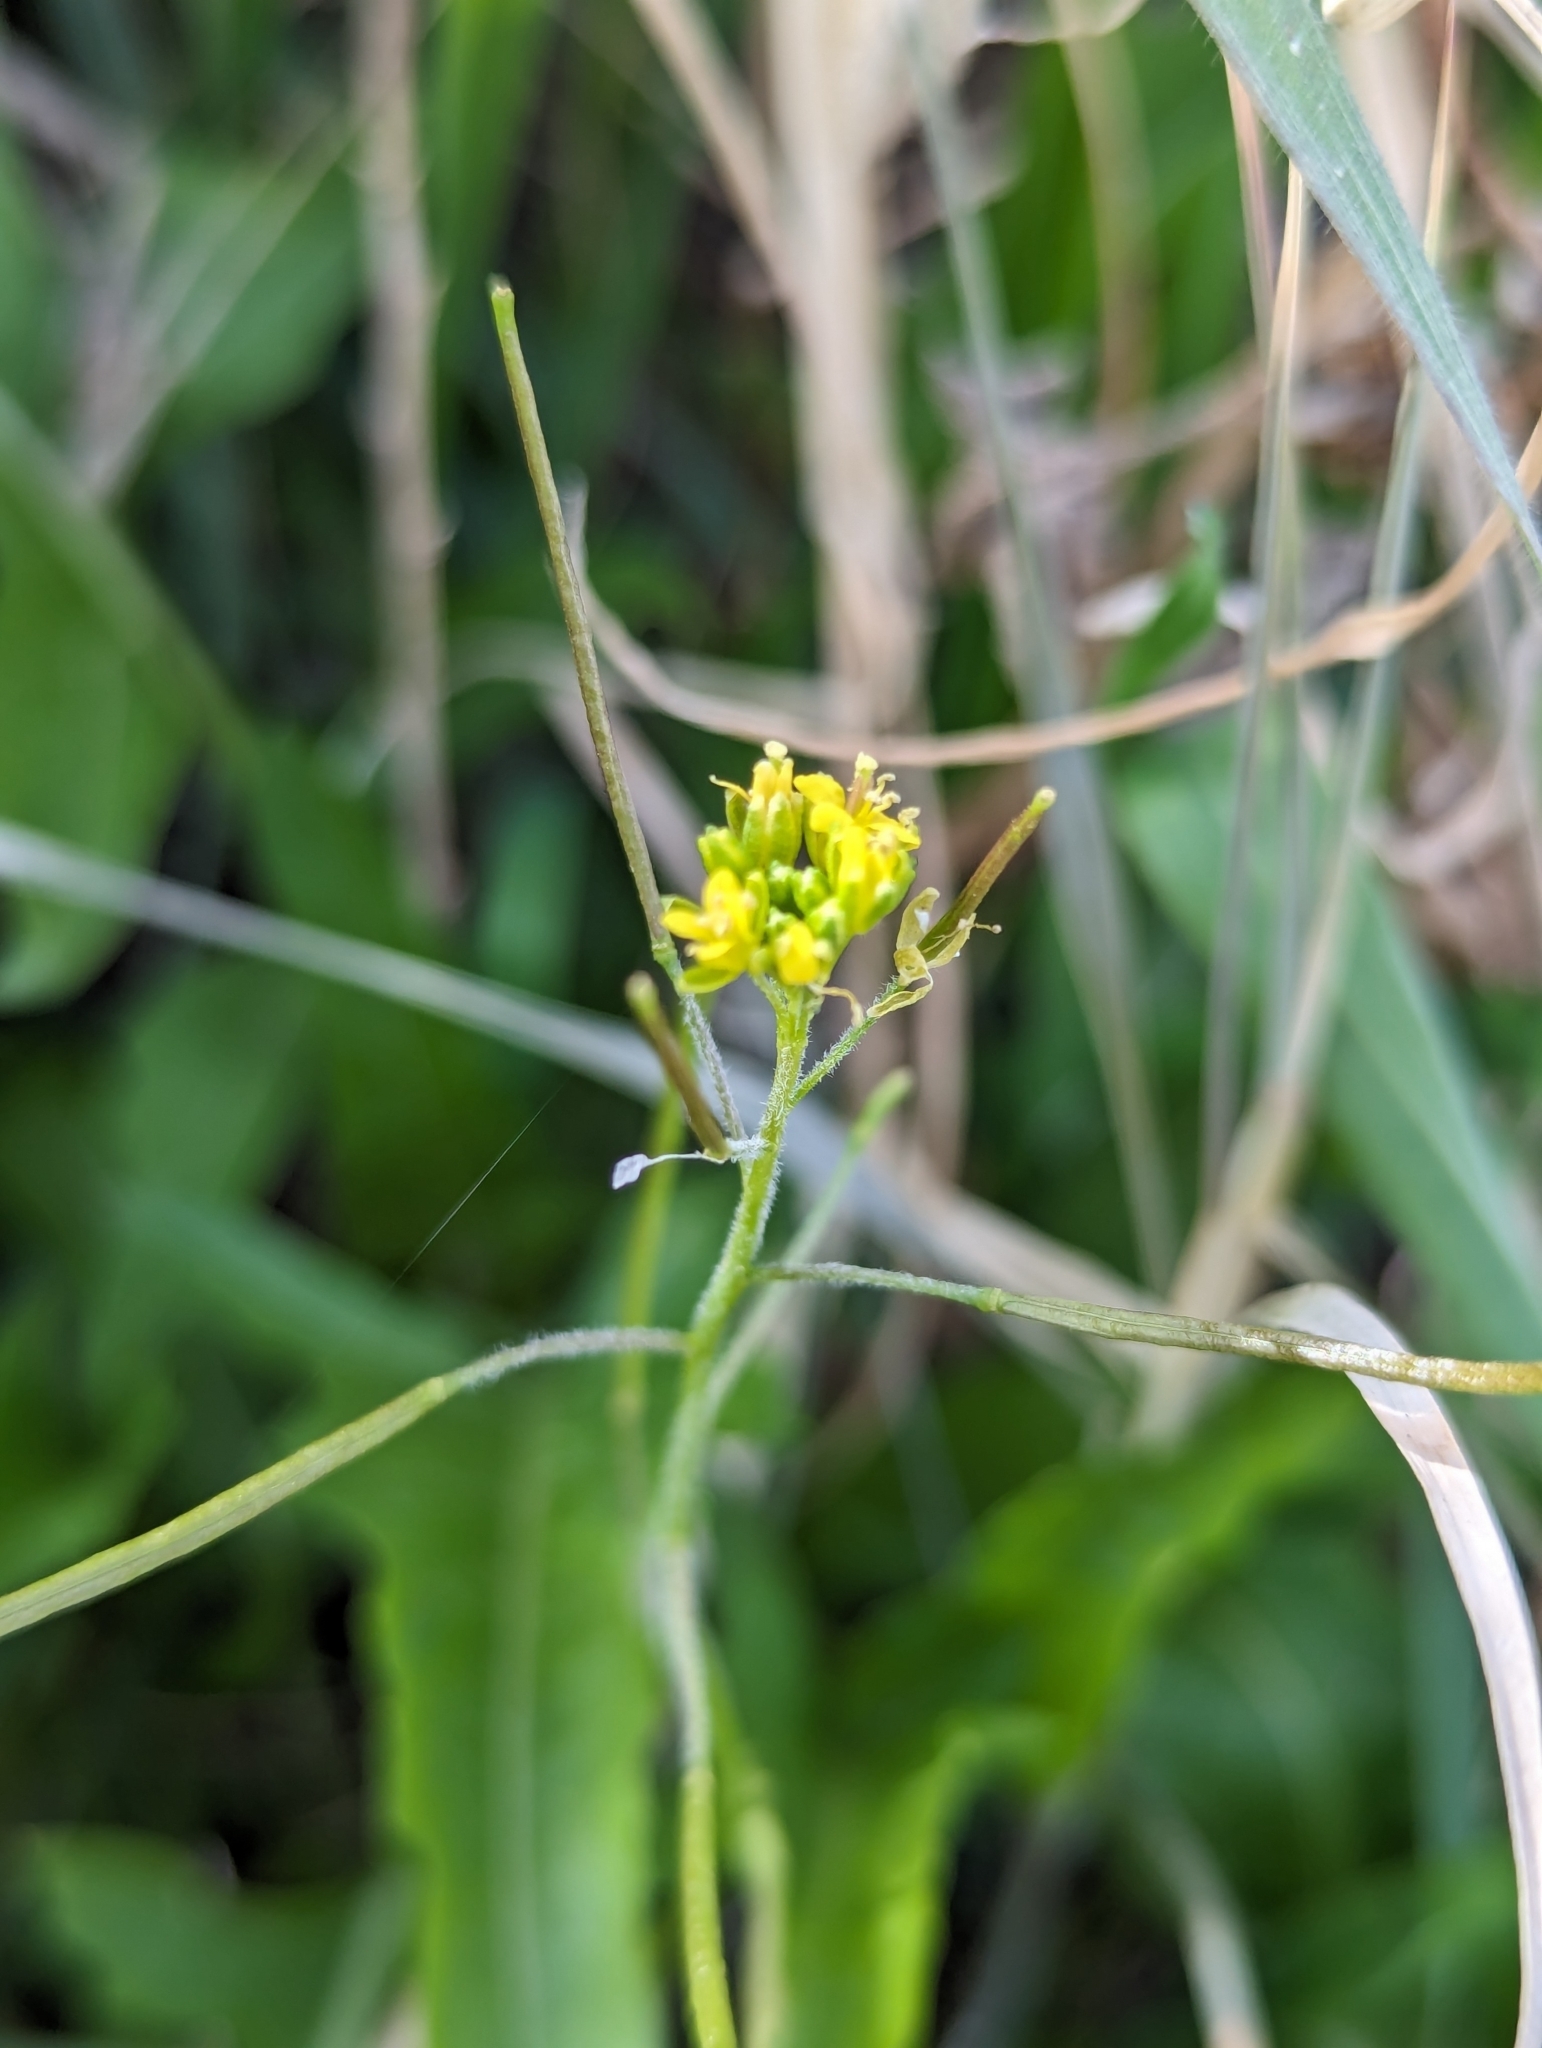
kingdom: Plantae
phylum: Tracheophyta
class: Magnoliopsida
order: Brassicales
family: Brassicaceae
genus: Sisymbrium
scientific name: Sisymbrium irio
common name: London rocket
